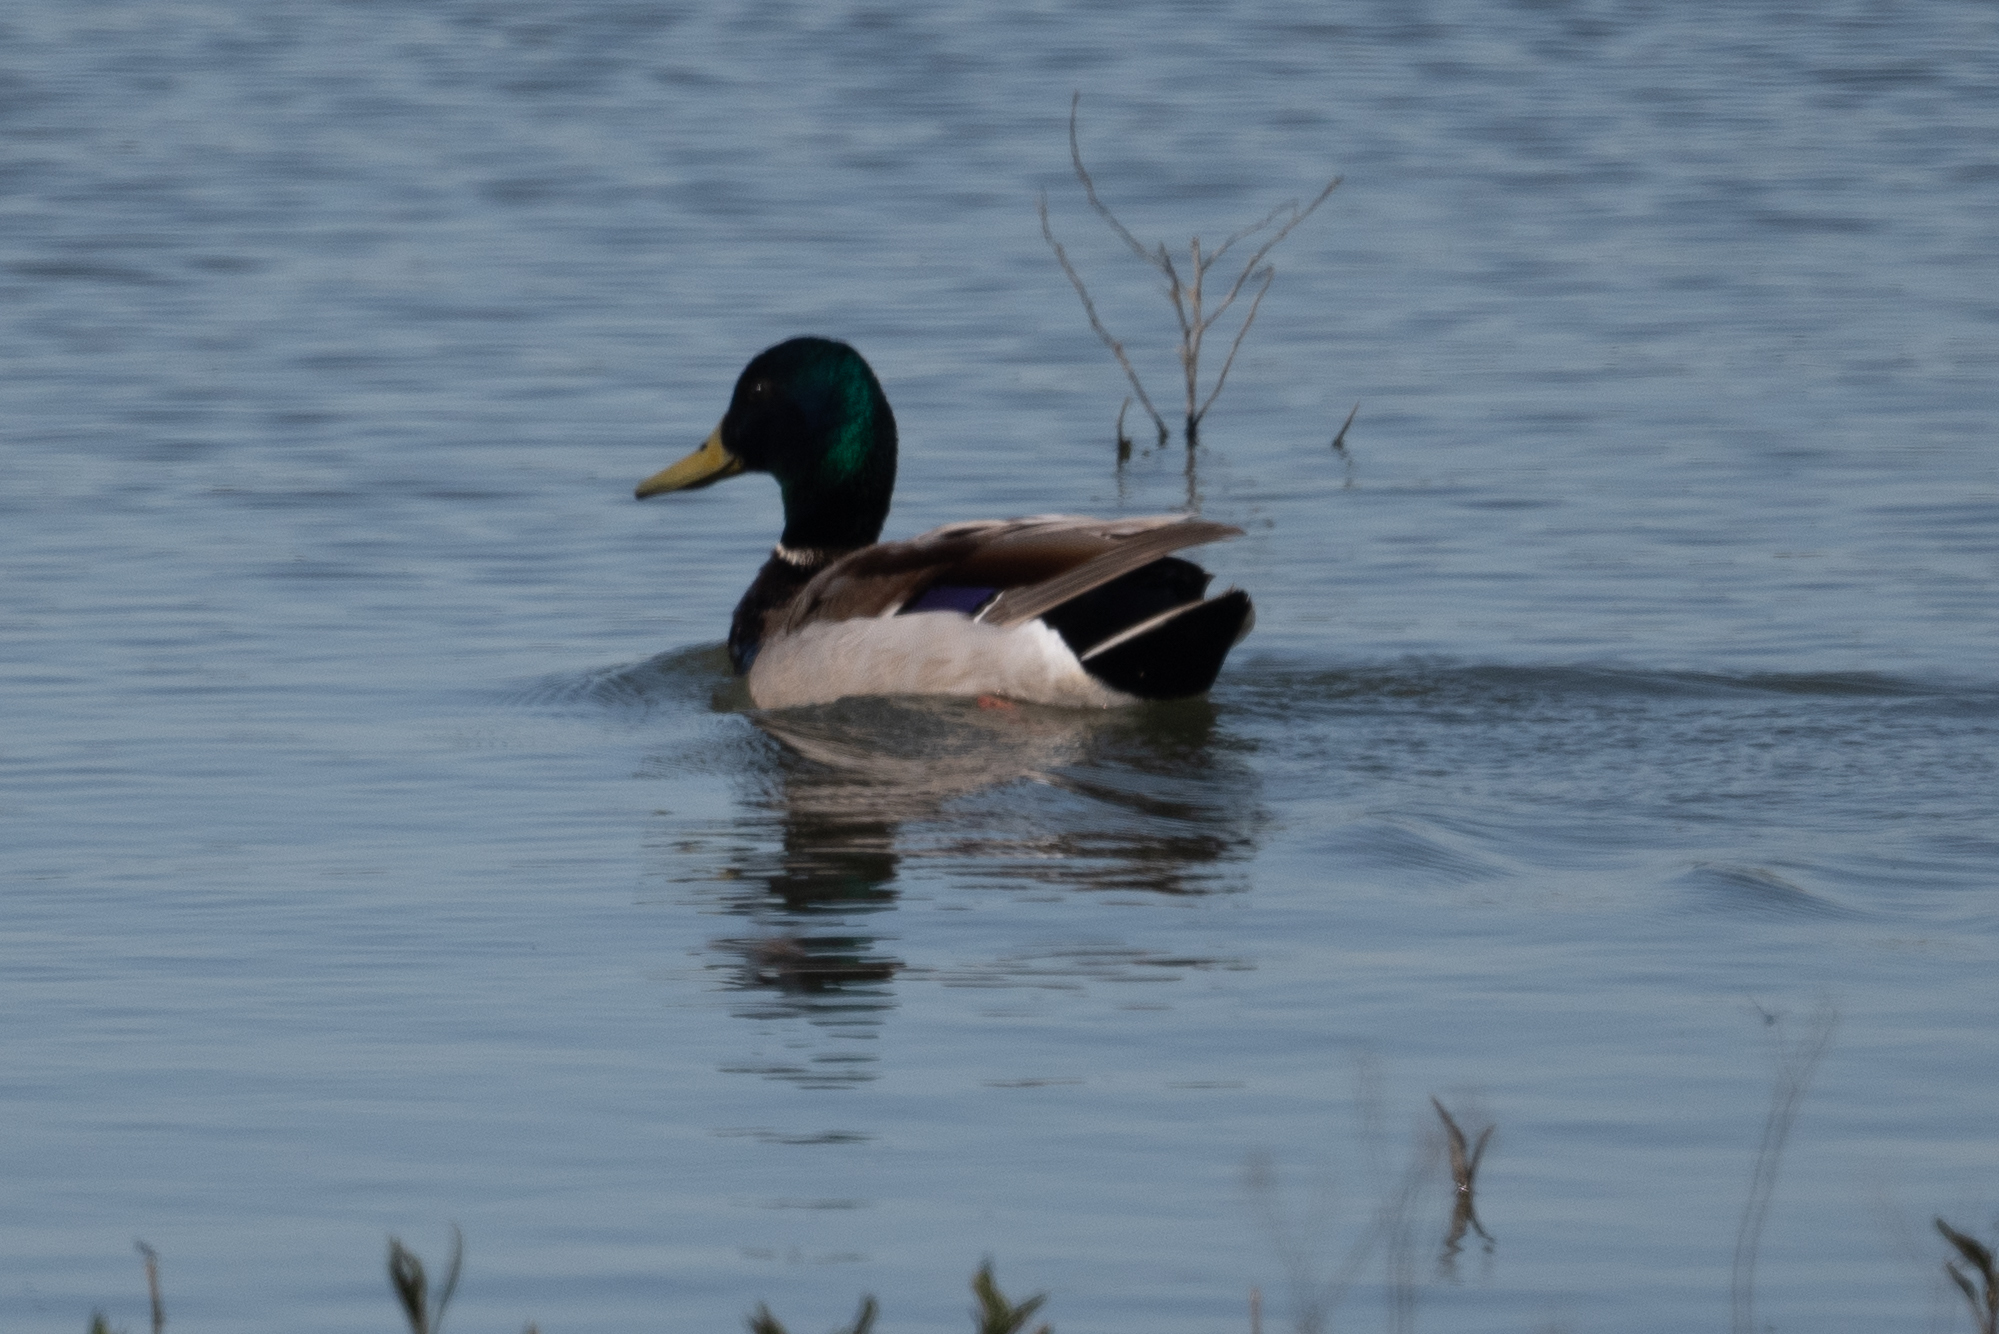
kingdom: Animalia
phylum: Chordata
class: Aves
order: Anseriformes
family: Anatidae
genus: Anas
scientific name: Anas platyrhynchos
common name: Mallard
